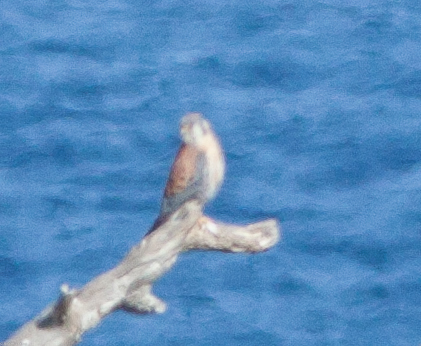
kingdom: Animalia
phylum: Chordata
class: Aves
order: Falconiformes
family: Falconidae
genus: Falco
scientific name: Falco sparverius
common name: American kestrel
